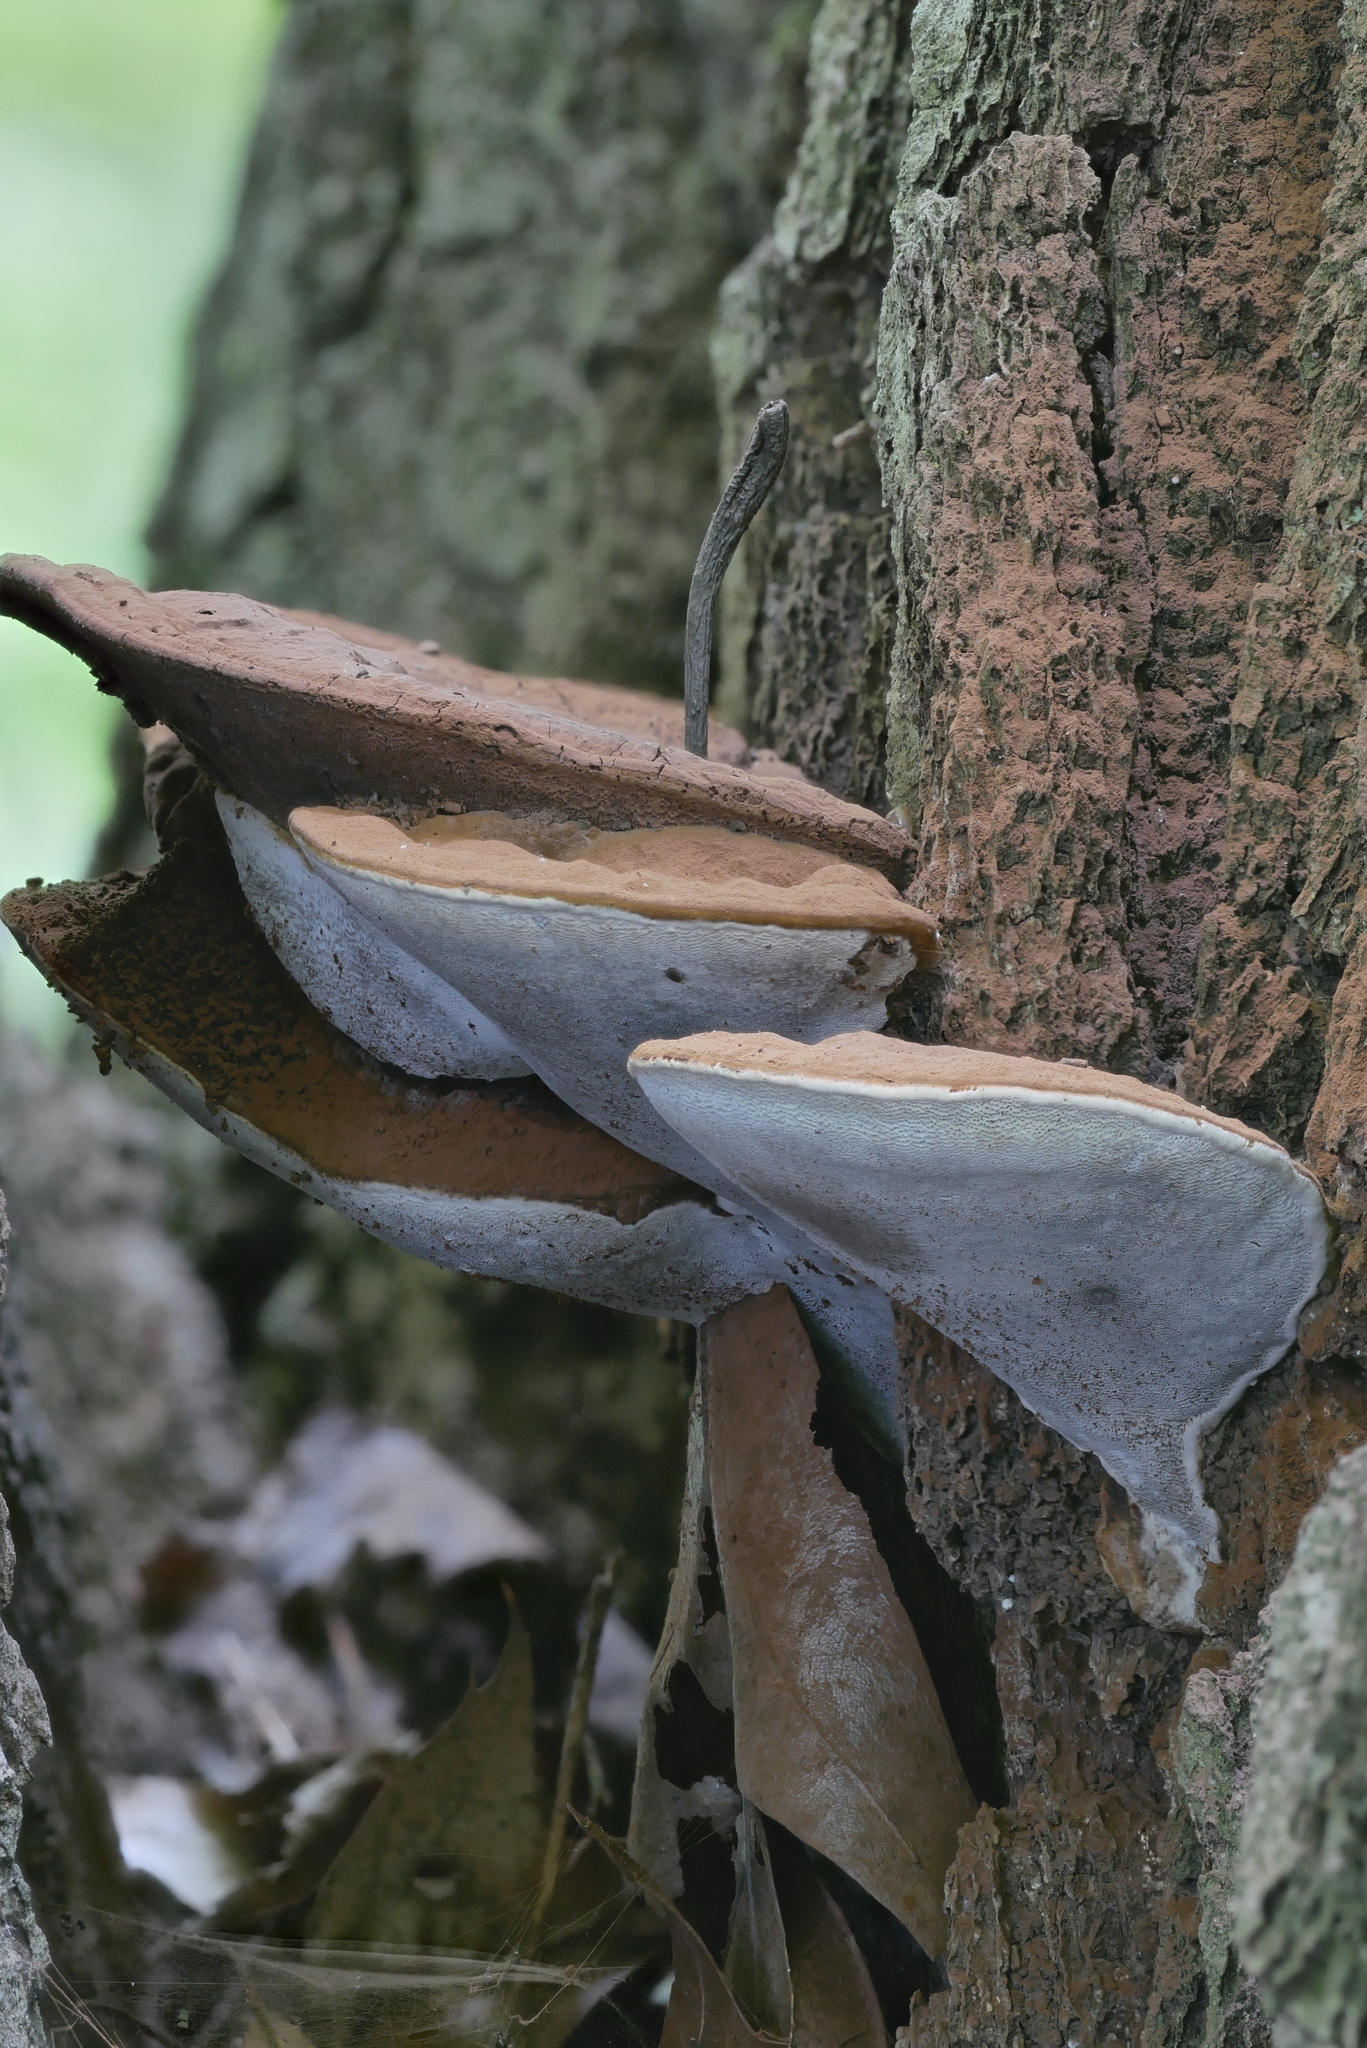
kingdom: Fungi
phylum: Basidiomycota
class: Agaricomycetes
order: Polyporales
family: Polyporaceae
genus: Ganoderma
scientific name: Ganoderma lobatum
